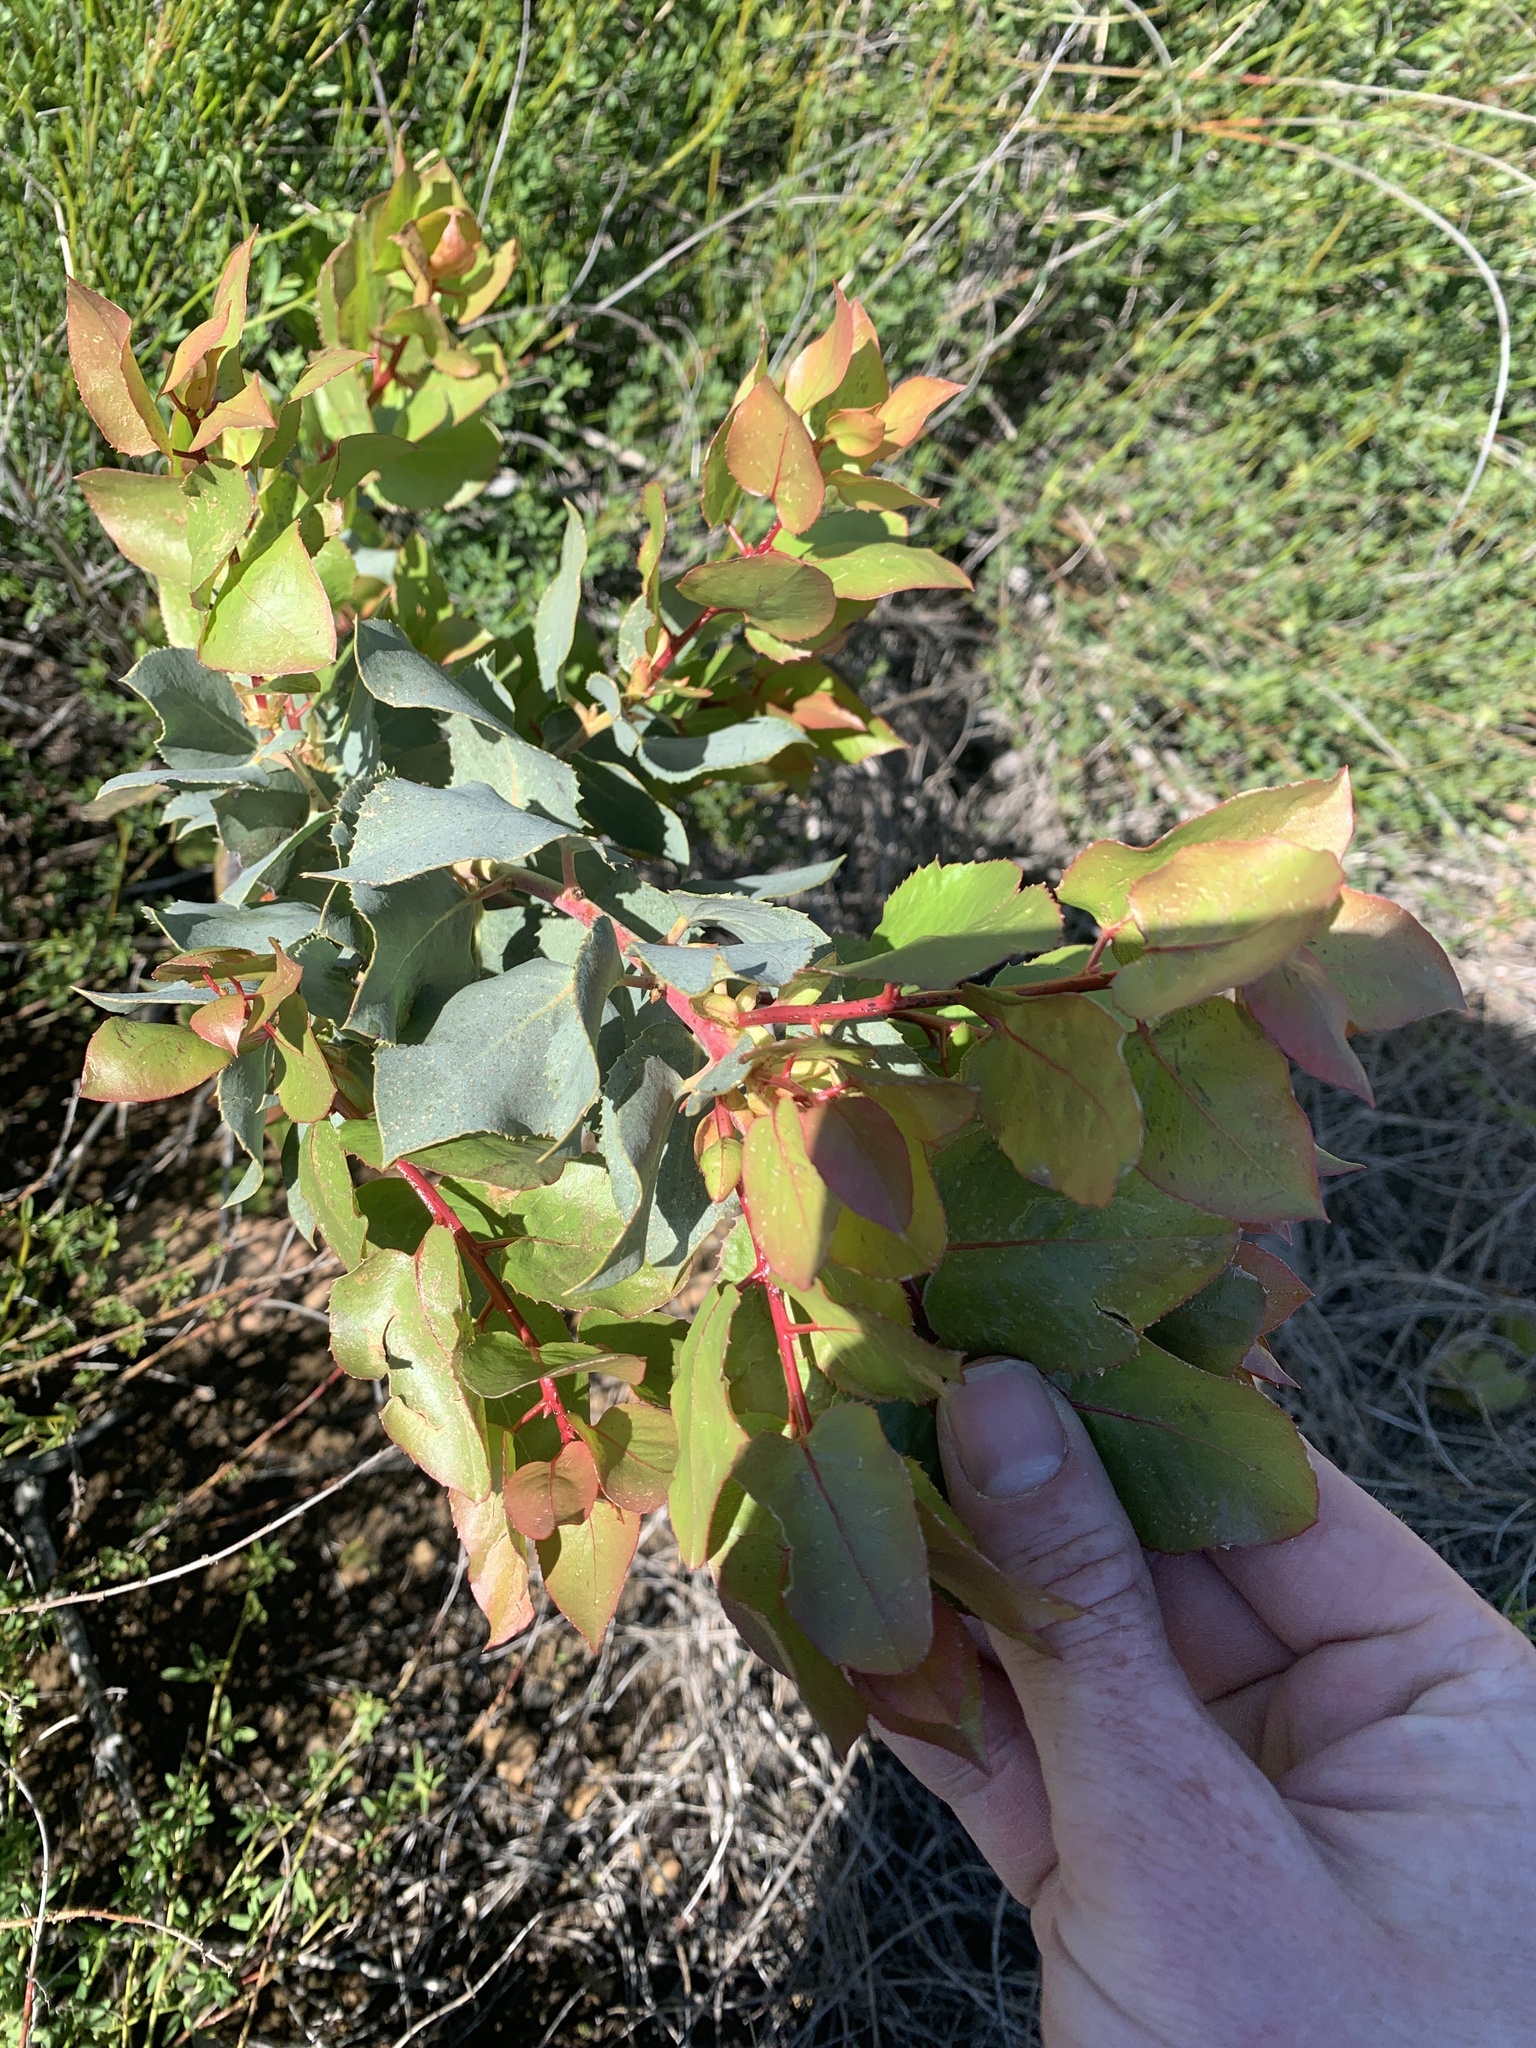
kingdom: Plantae
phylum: Tracheophyta
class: Magnoliopsida
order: Ericales
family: Ericaceae
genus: Arctostaphylos
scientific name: Arctostaphylos glauca
